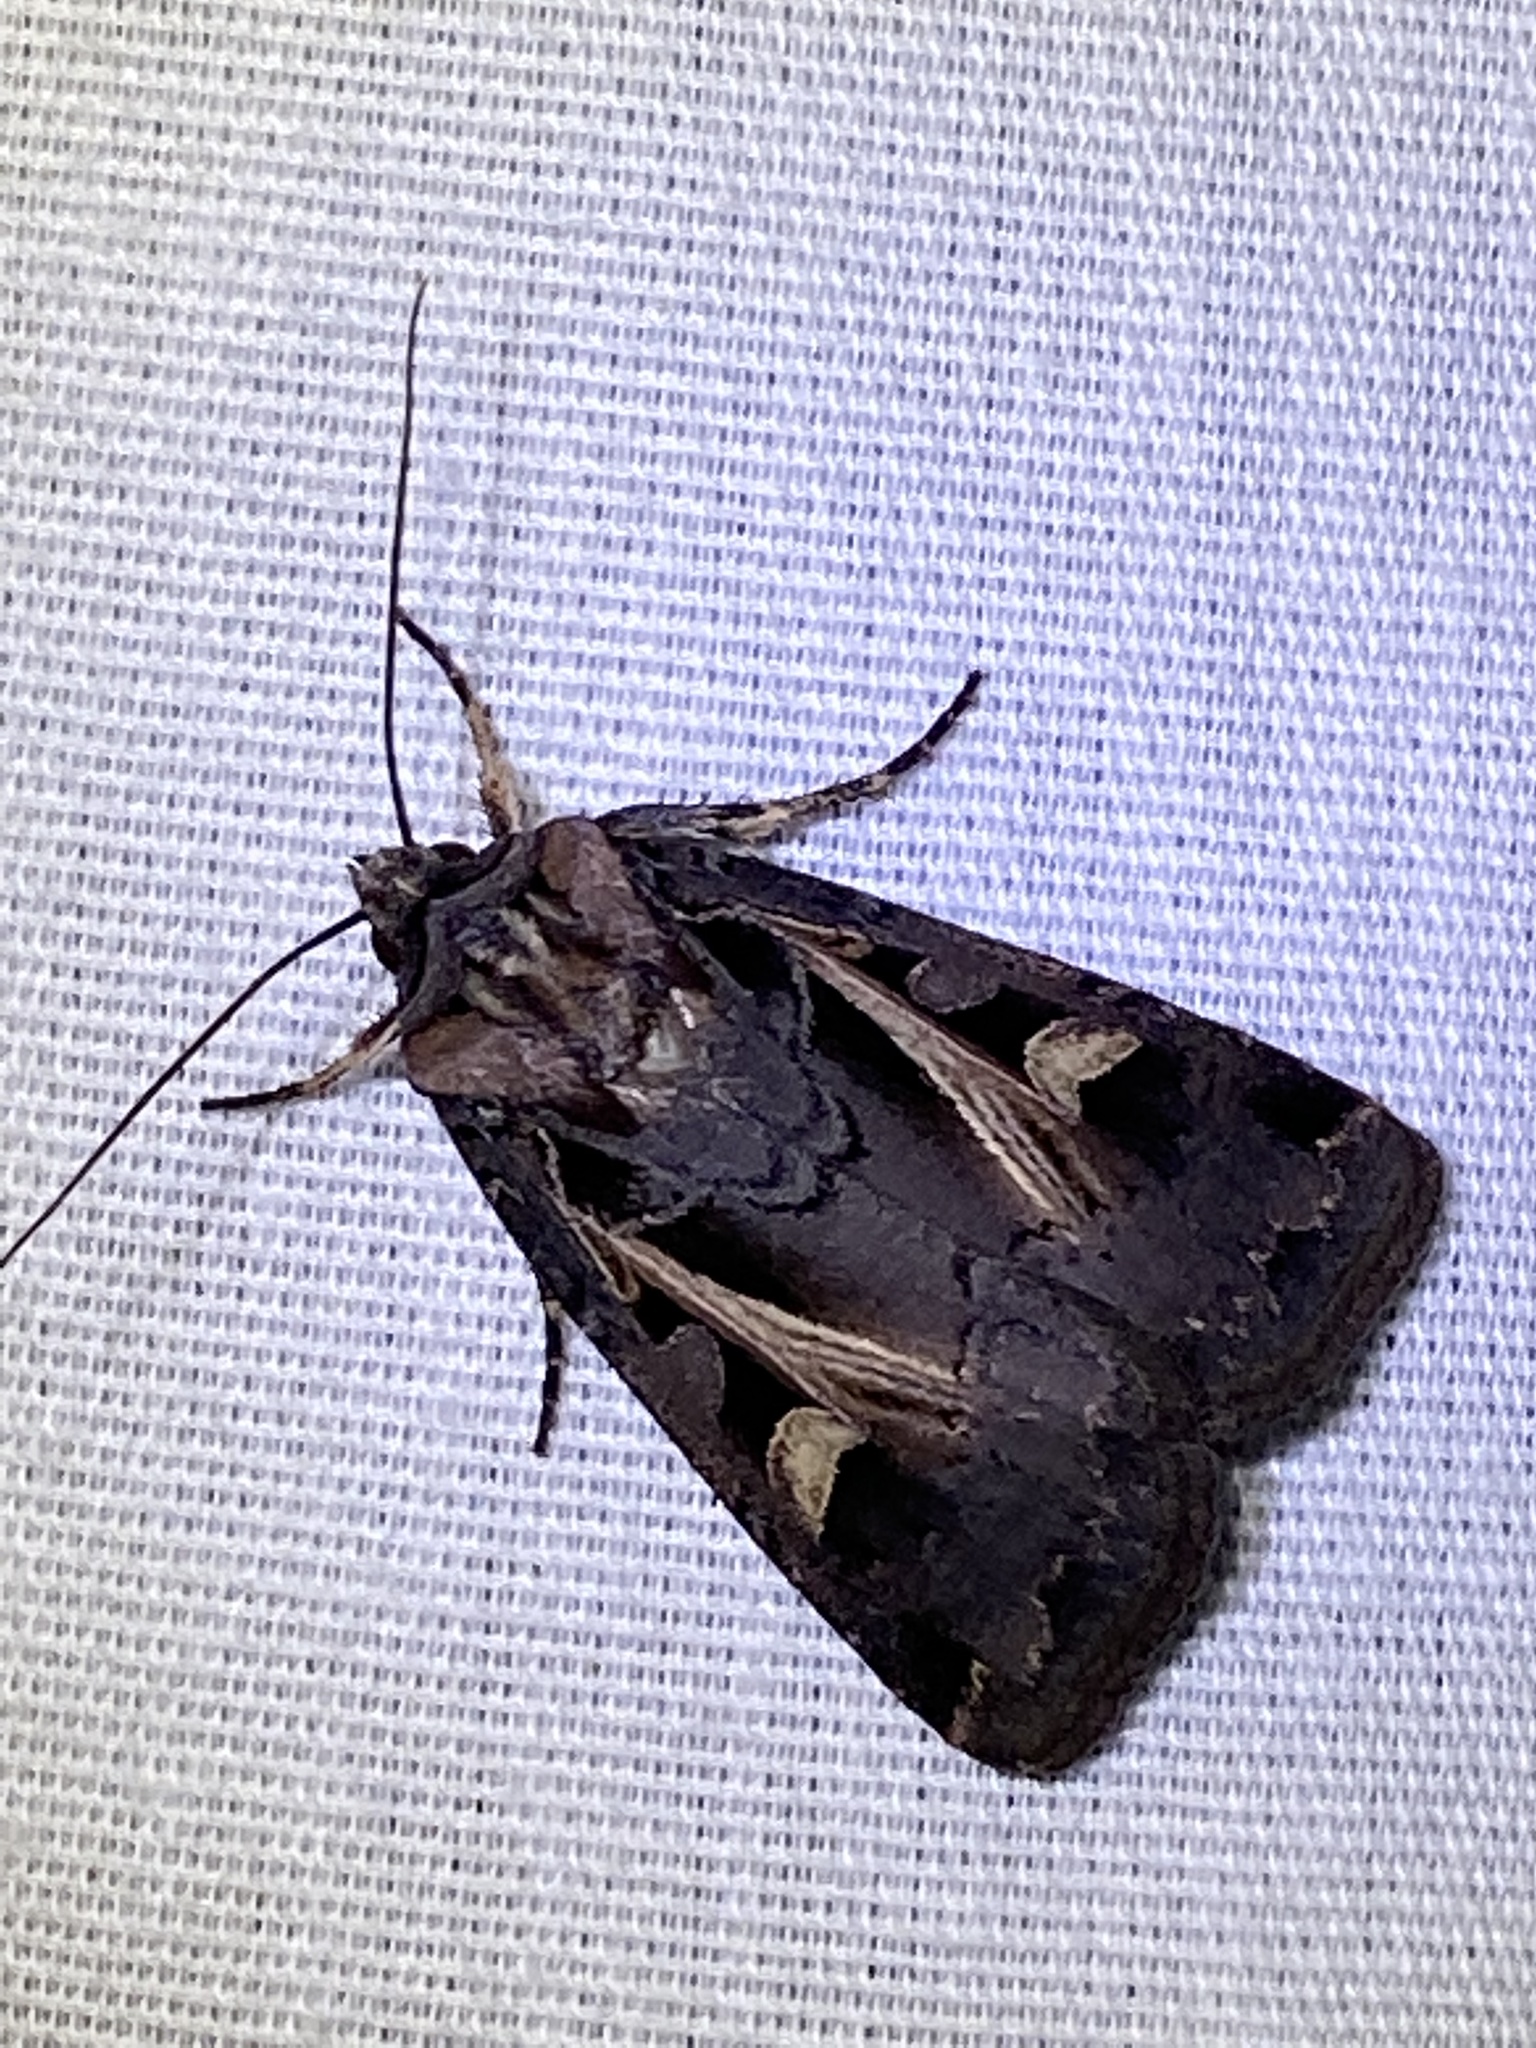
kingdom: Animalia
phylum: Arthropoda
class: Insecta
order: Lepidoptera
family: Noctuidae
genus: Feltia
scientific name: Feltia herilis
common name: Master's dart
